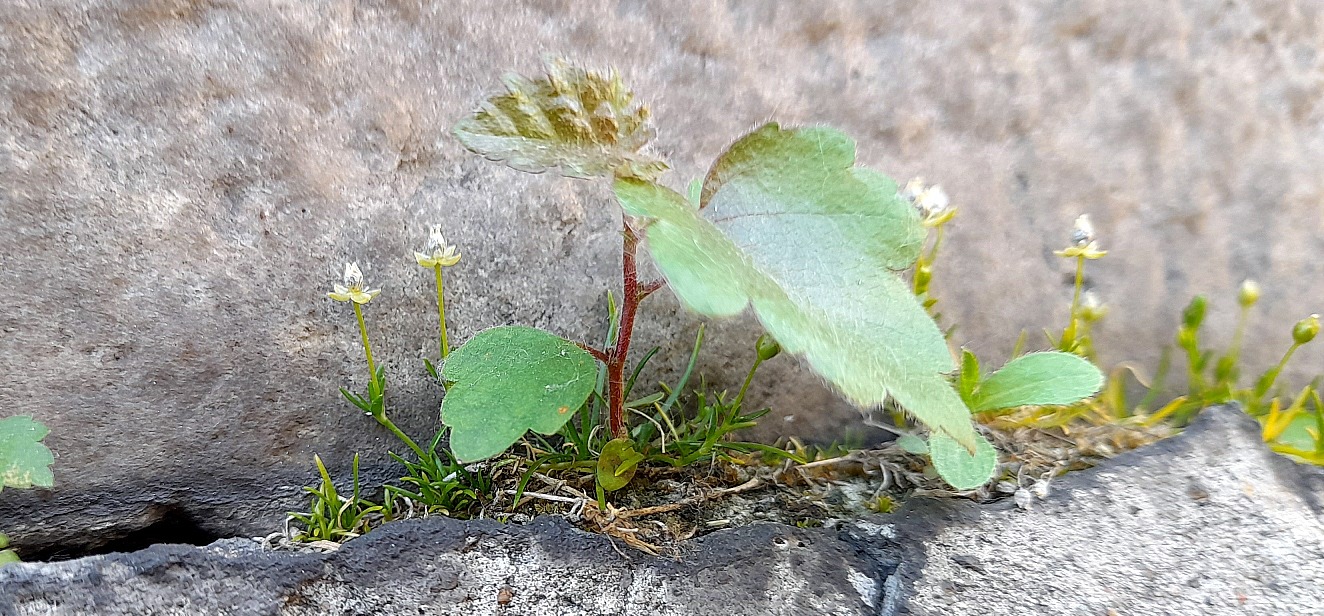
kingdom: Plantae
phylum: Tracheophyta
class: Magnoliopsida
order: Fagales
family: Betulaceae
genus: Betula
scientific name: Betula pubescens
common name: Downy birch
